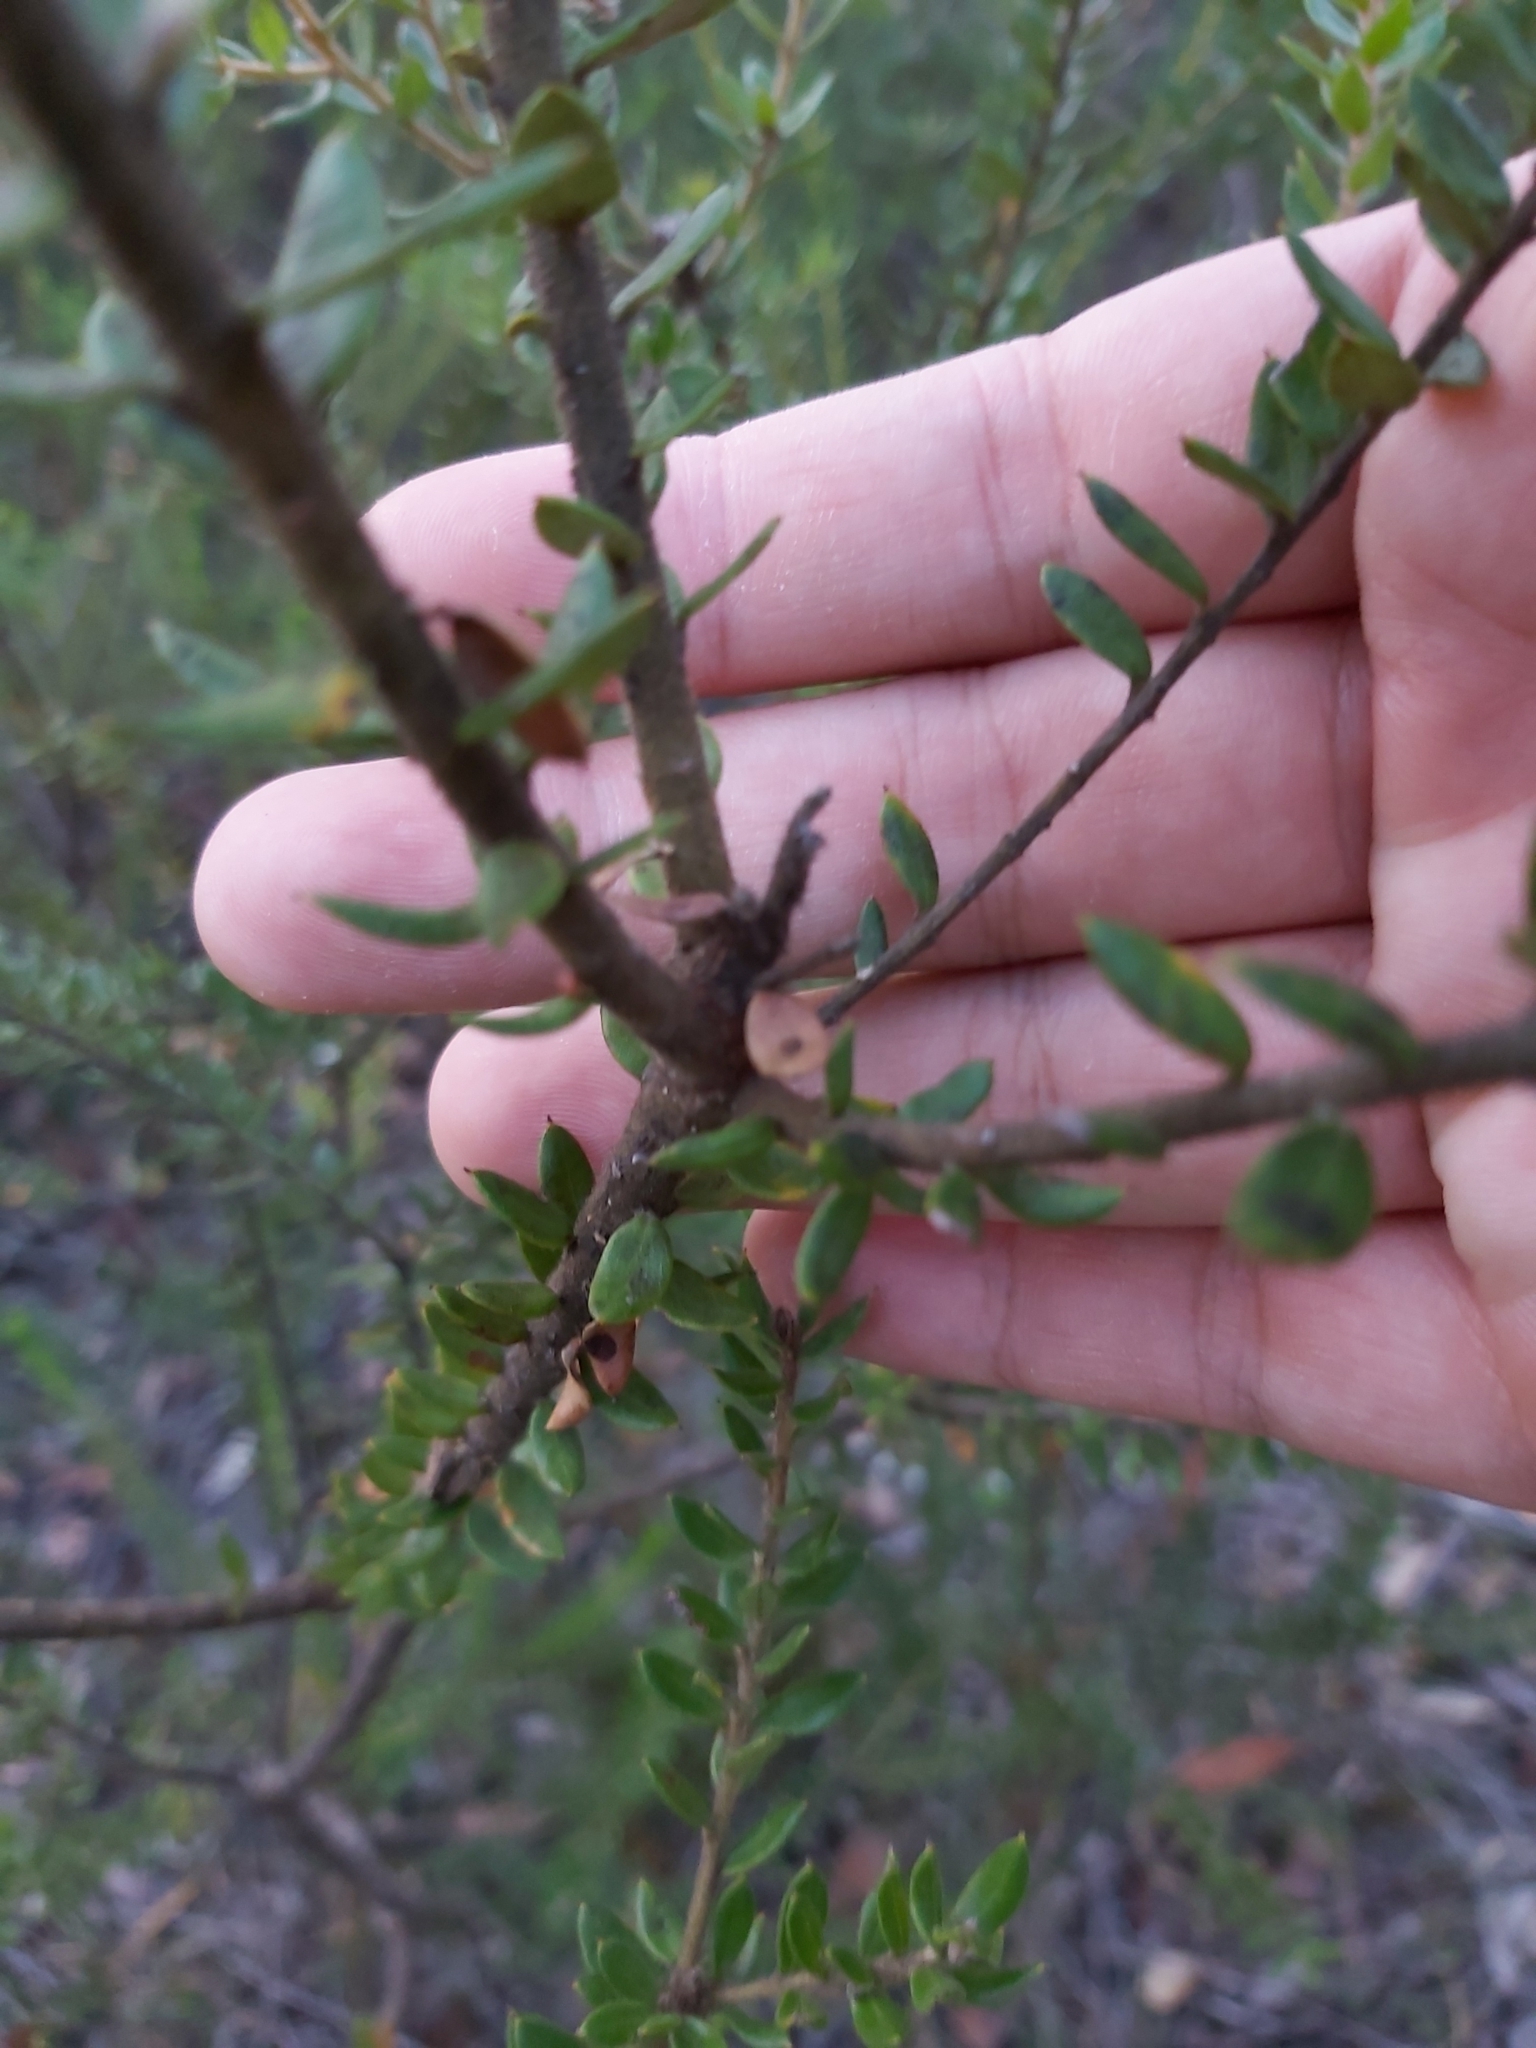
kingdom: Plantae
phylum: Tracheophyta
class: Magnoliopsida
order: Proteales
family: Proteaceae
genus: Grevillea
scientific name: Grevillea buxifolia
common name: Grey spiderflower
